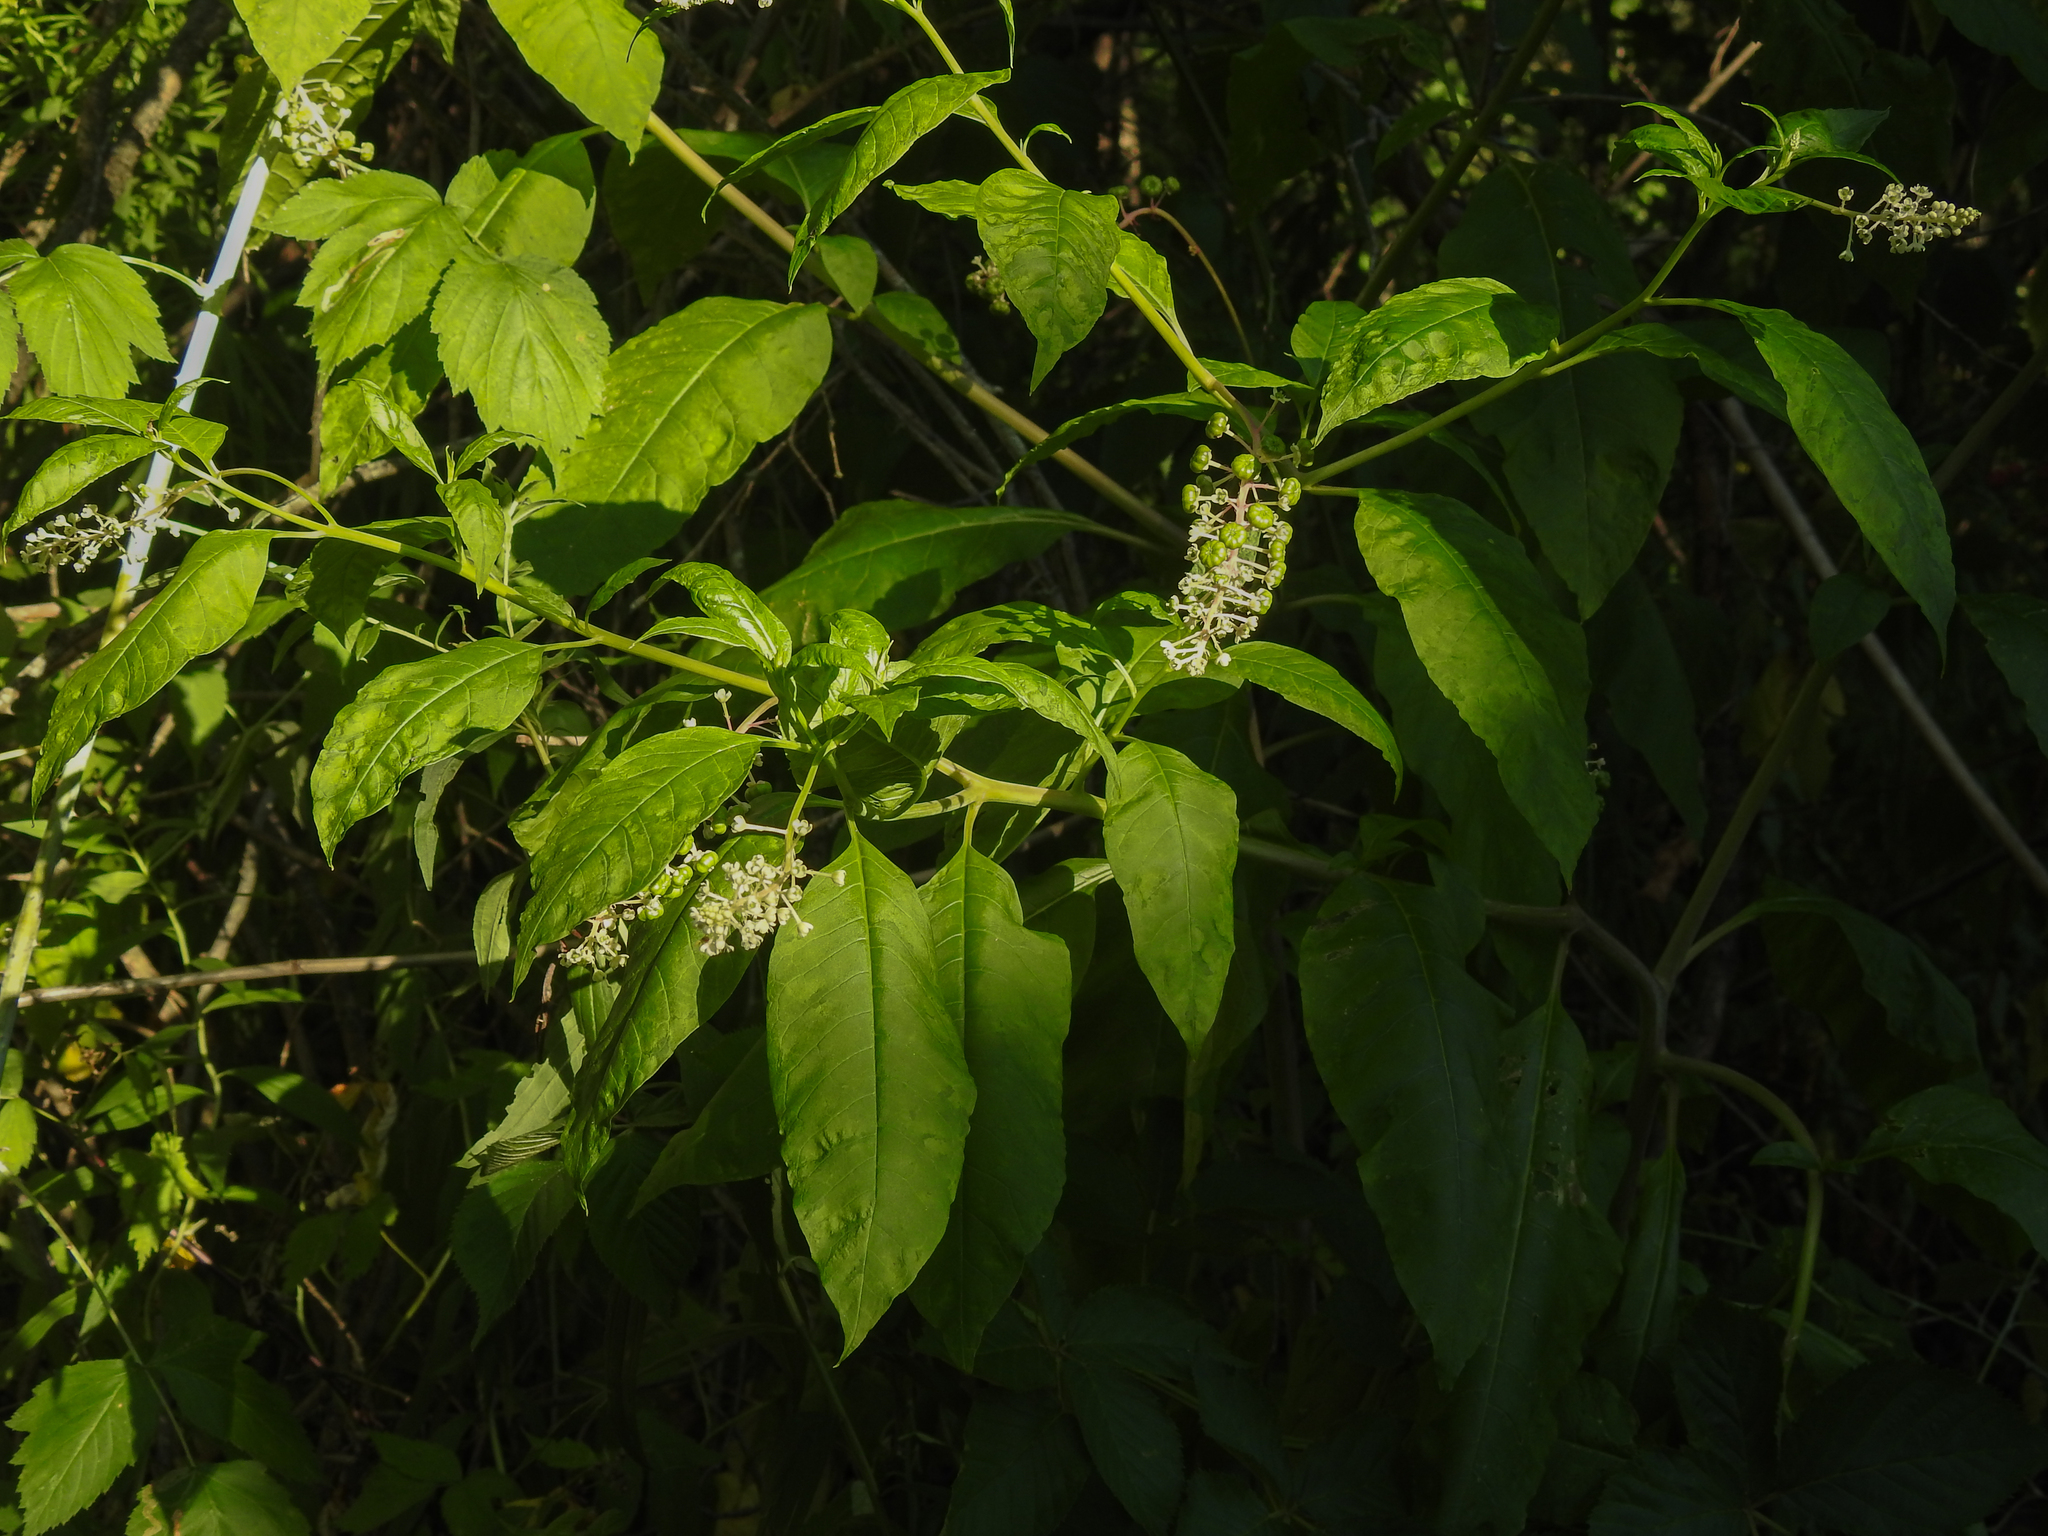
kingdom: Viruses
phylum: Pisuviricota
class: Stelpaviricetes
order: Patatavirales
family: Potyviridae
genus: Potyvirus
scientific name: Potyvirus Pokeweed mosaic virus
